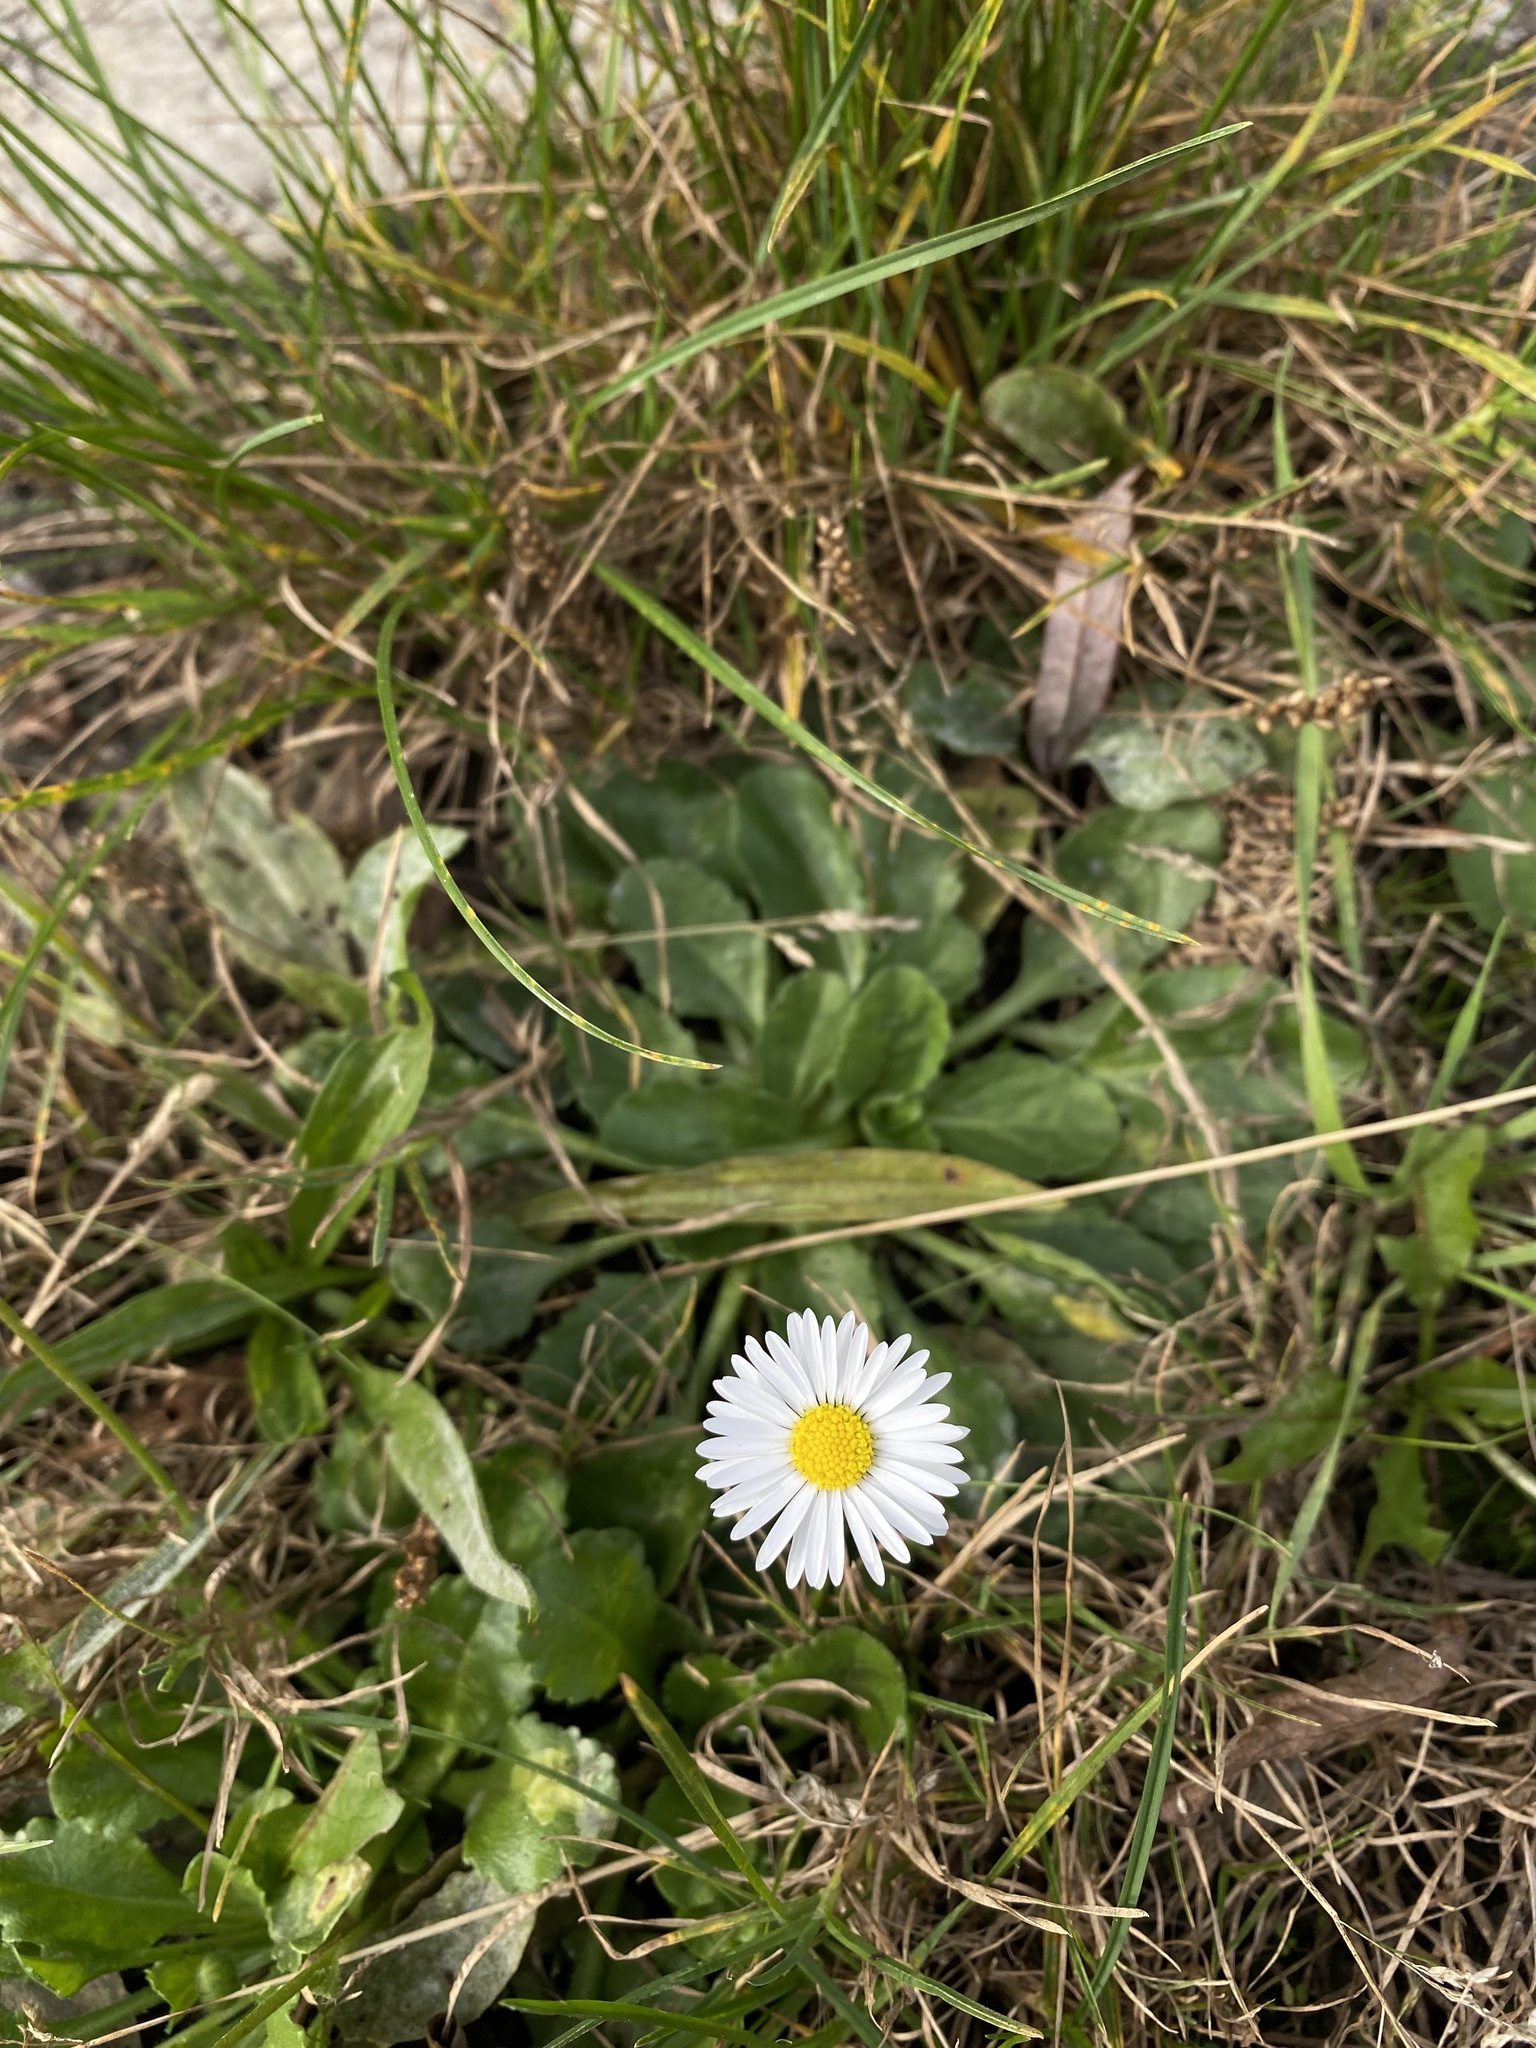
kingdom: Plantae
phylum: Tracheophyta
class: Magnoliopsida
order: Asterales
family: Asteraceae
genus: Bellis
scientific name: Bellis perennis
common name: Lawndaisy
